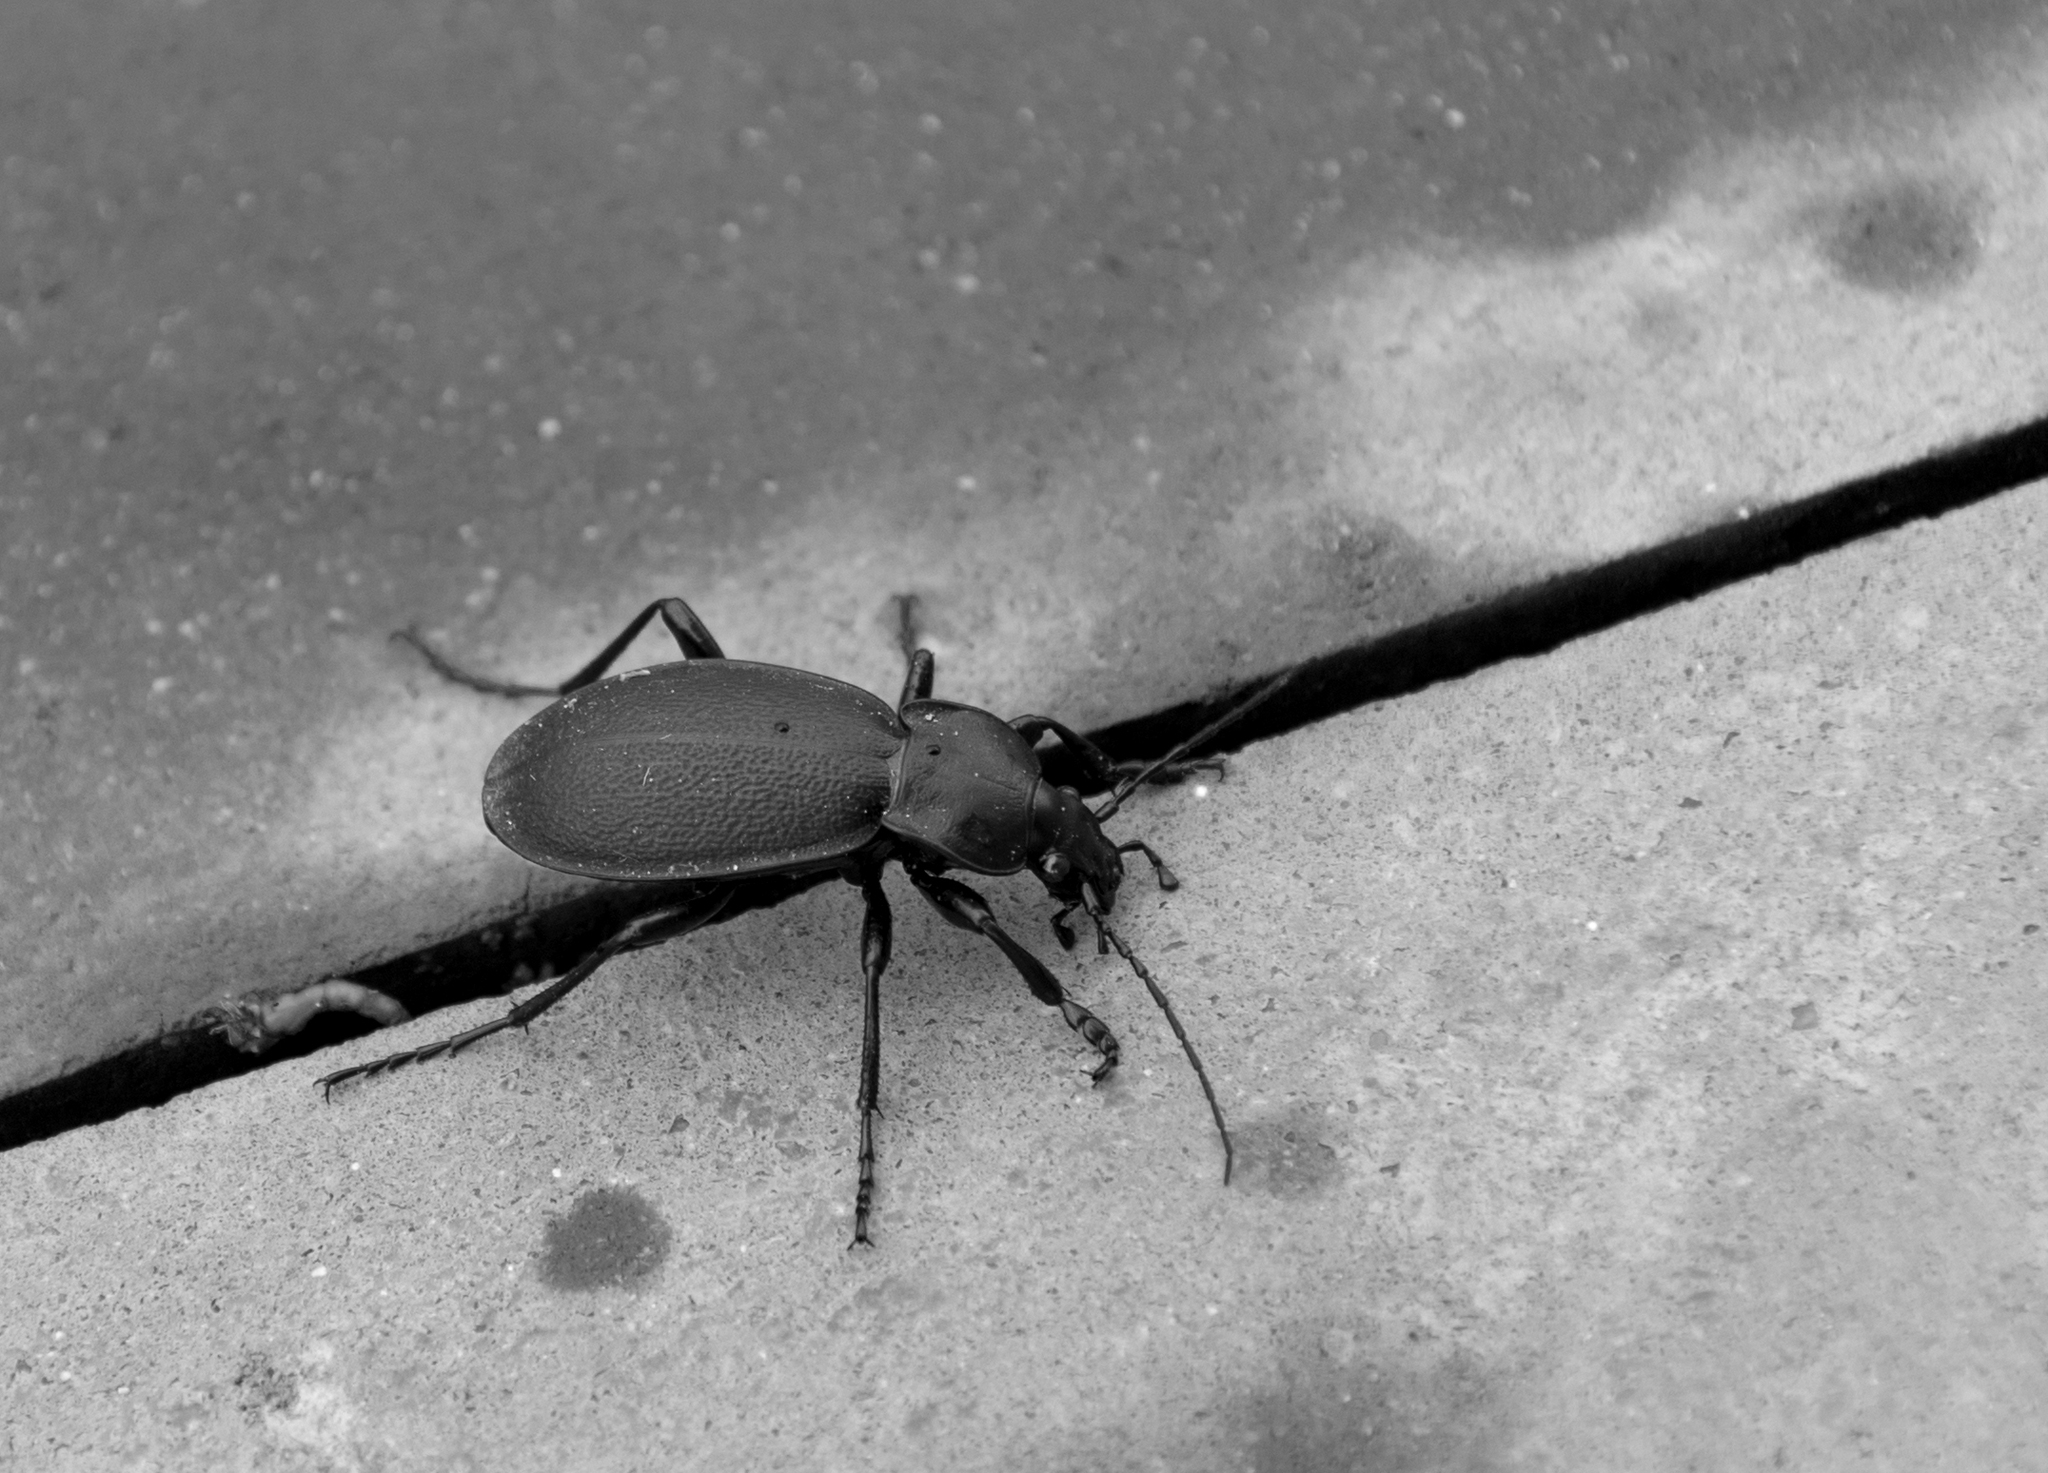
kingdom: Animalia
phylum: Arthropoda
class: Insecta
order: Coleoptera
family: Carabidae
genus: Carabus
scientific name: Carabus coriaceus
